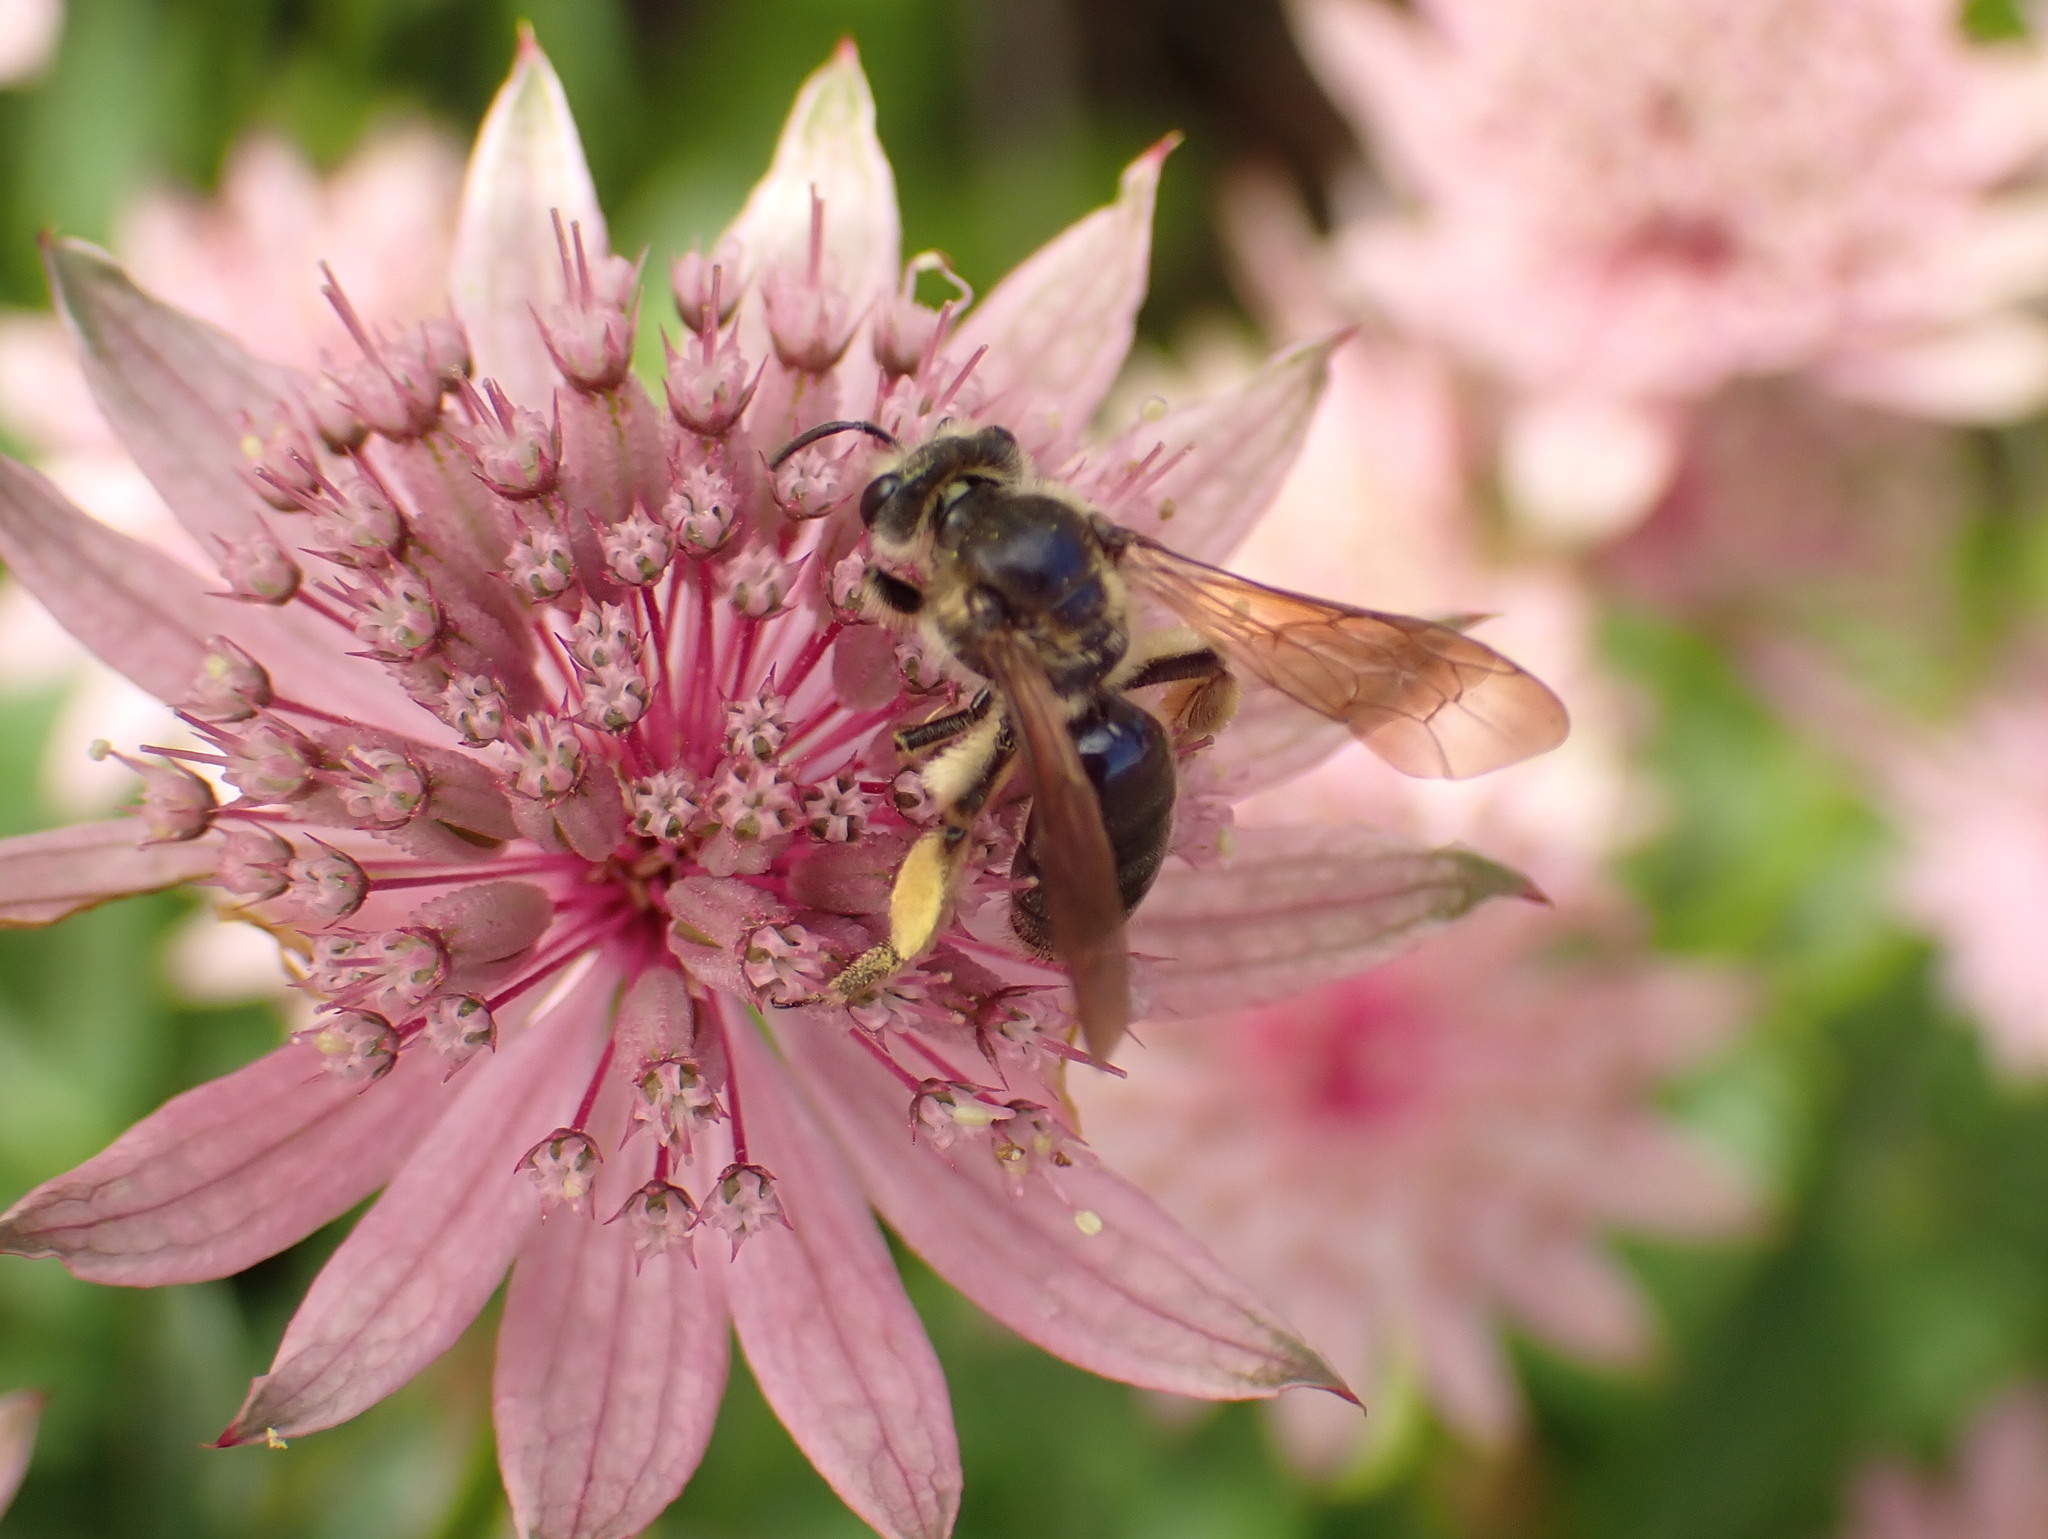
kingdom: Animalia
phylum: Arthropoda
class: Insecta
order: Hymenoptera
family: Andrenidae
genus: Andrena
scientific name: Andrena crataegi
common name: Hawthorn mining bee
